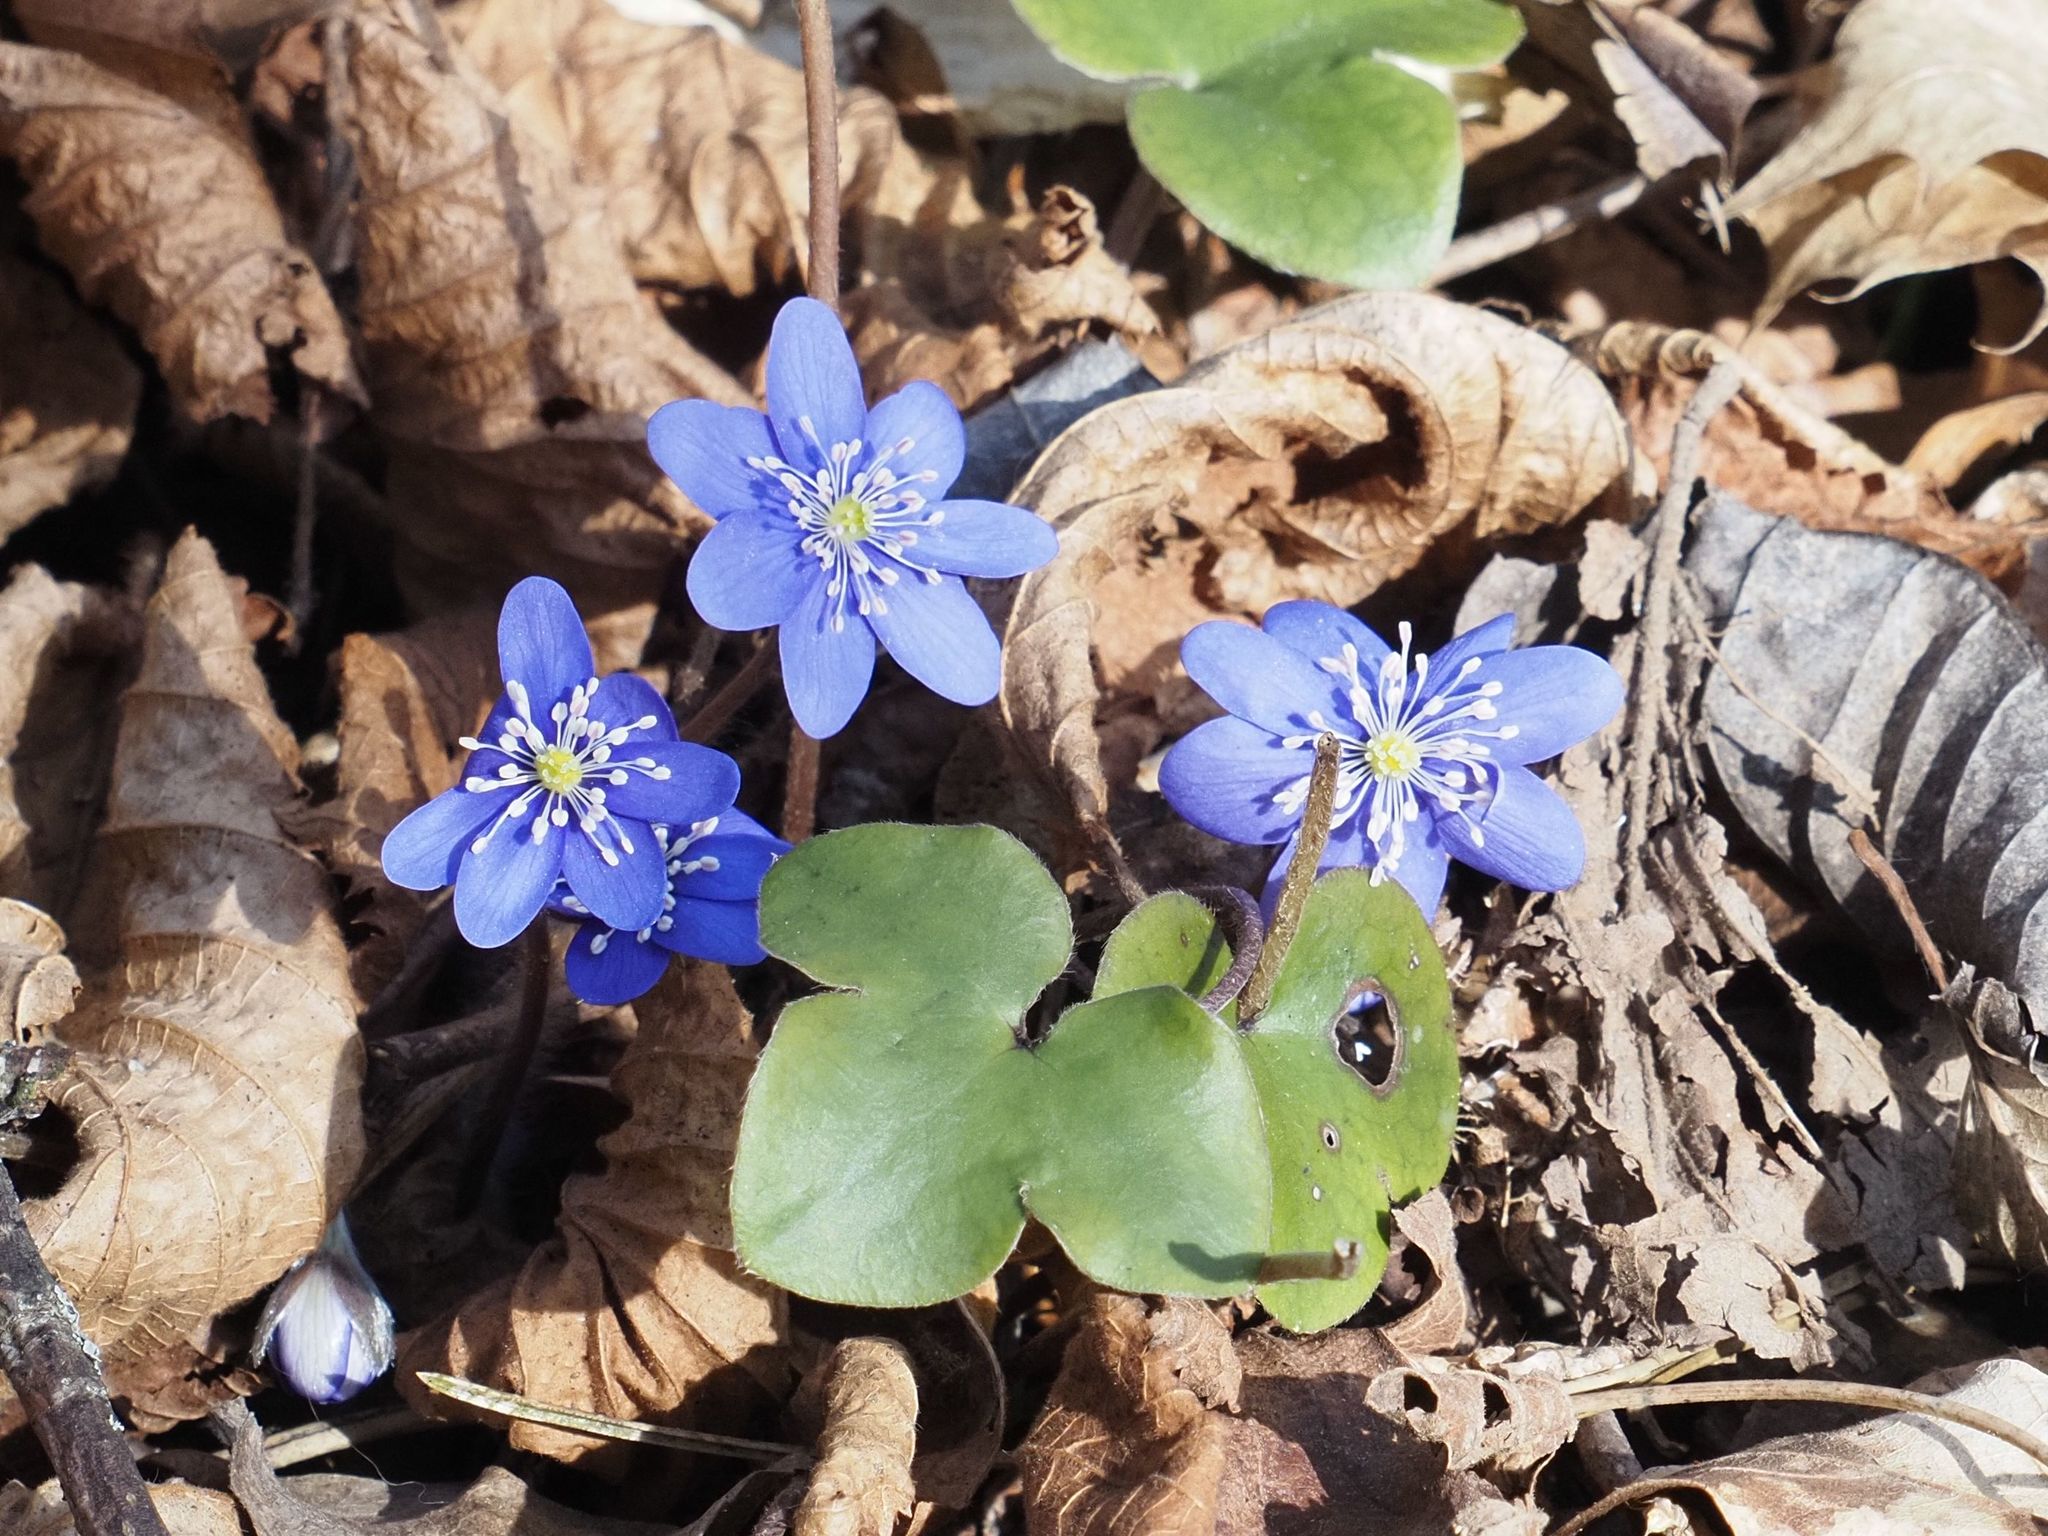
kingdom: Plantae
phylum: Tracheophyta
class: Magnoliopsida
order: Ranunculales
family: Ranunculaceae
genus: Hepatica
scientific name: Hepatica nobilis
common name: Liverleaf
